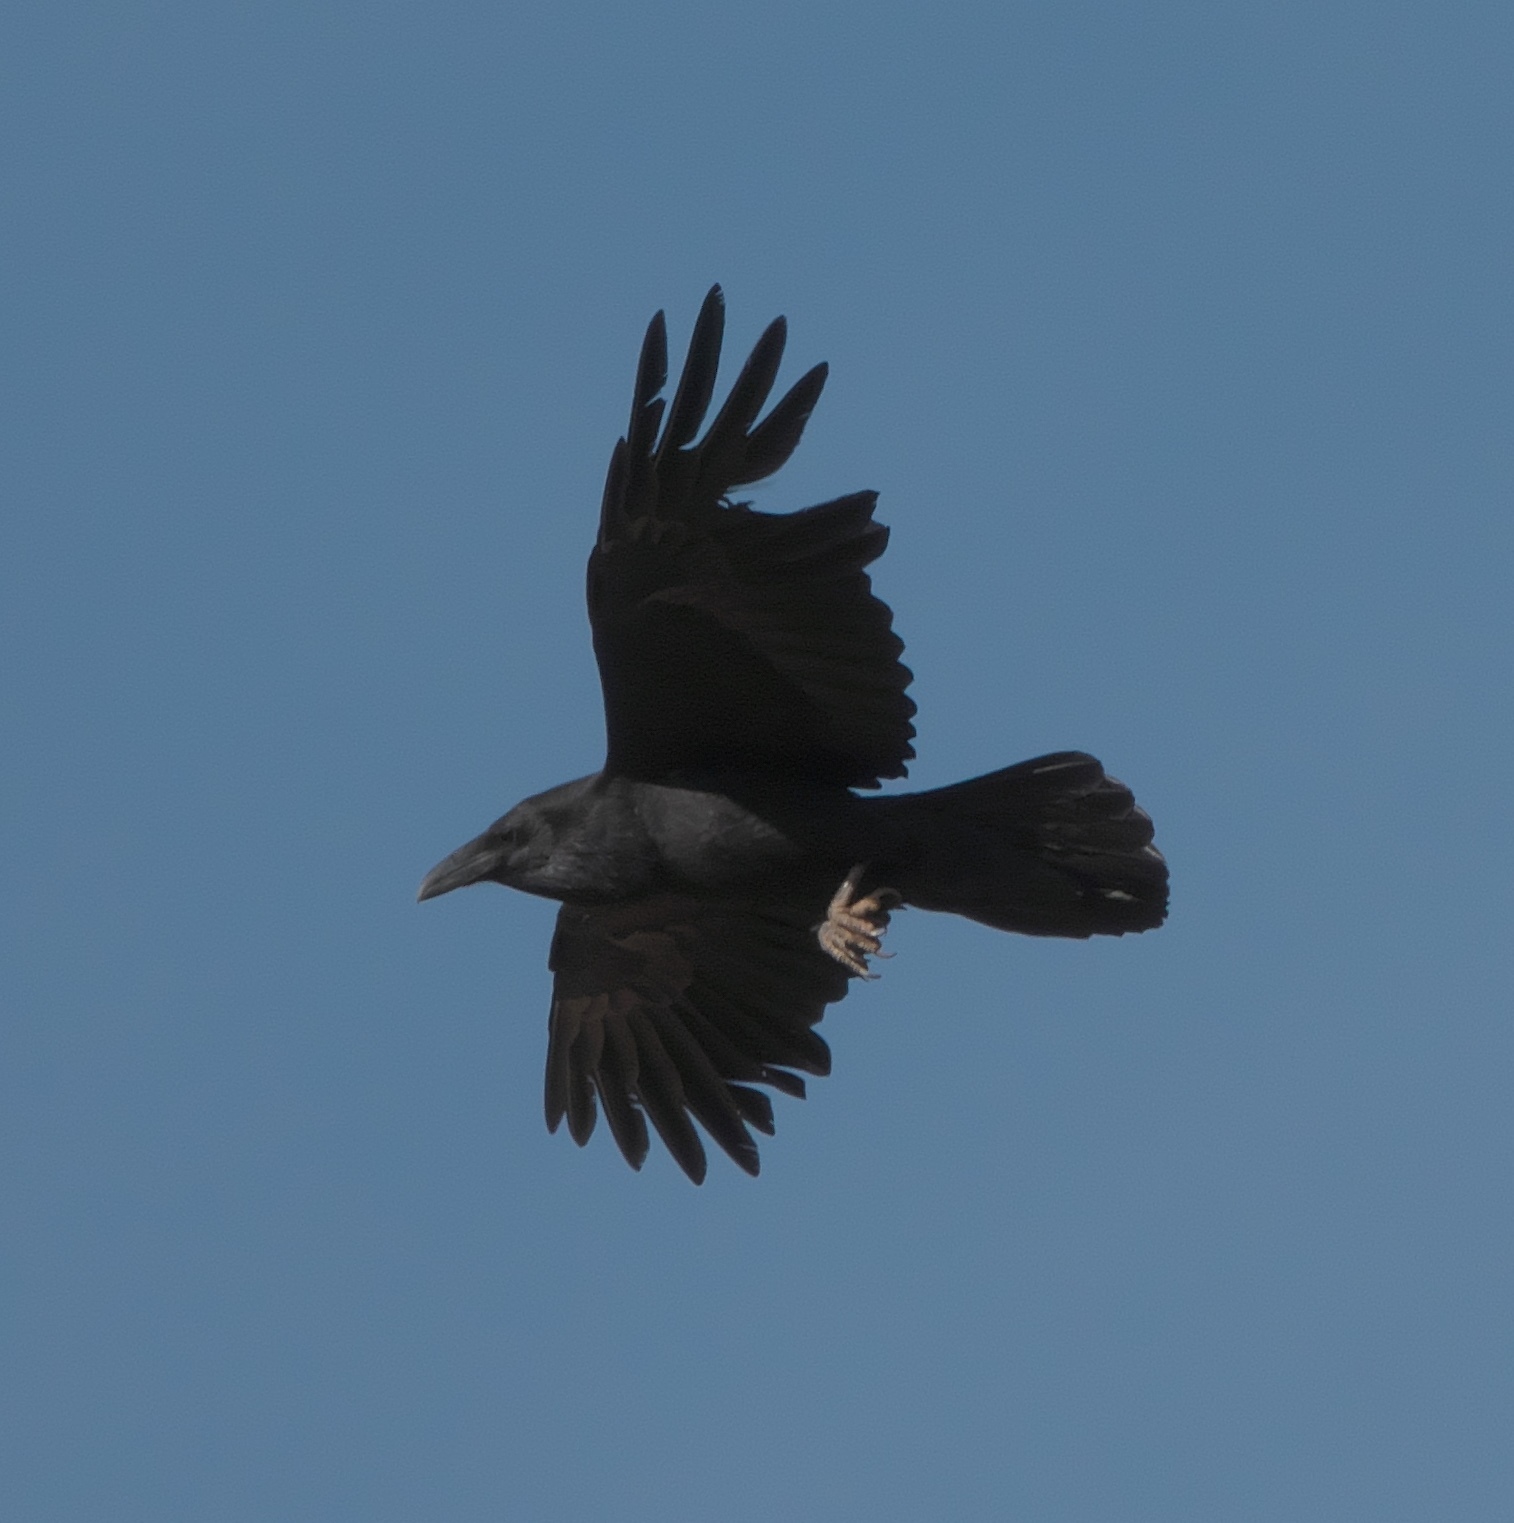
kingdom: Animalia
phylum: Chordata
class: Aves
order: Passeriformes
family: Corvidae
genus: Corvus
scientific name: Corvus corax
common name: Common raven
